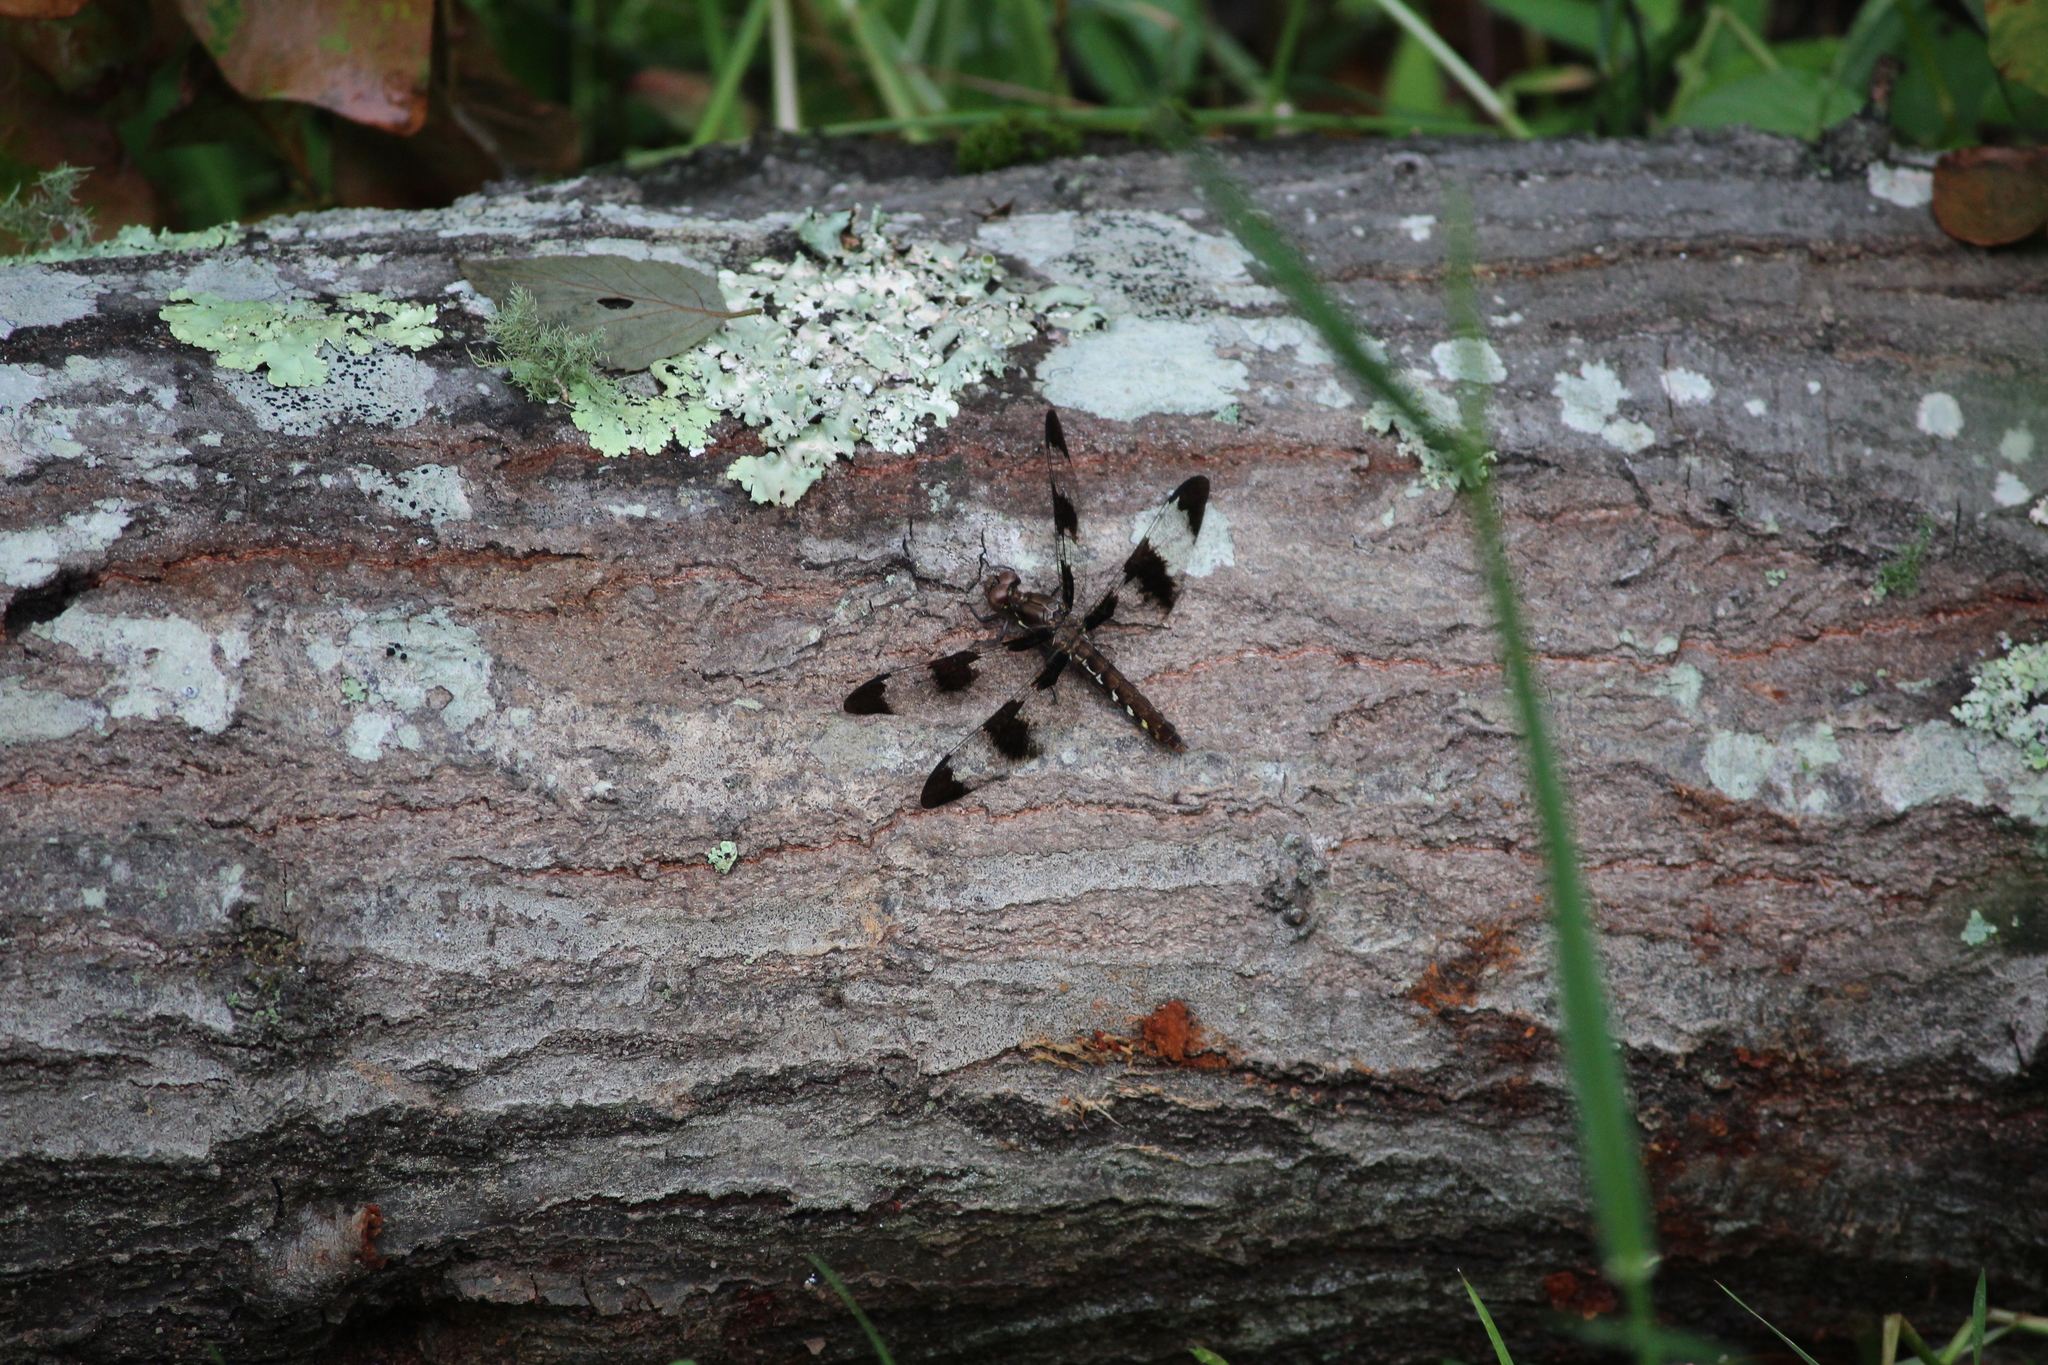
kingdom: Animalia
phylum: Arthropoda
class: Insecta
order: Odonata
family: Libellulidae
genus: Plathemis
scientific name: Plathemis lydia
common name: Common whitetail
